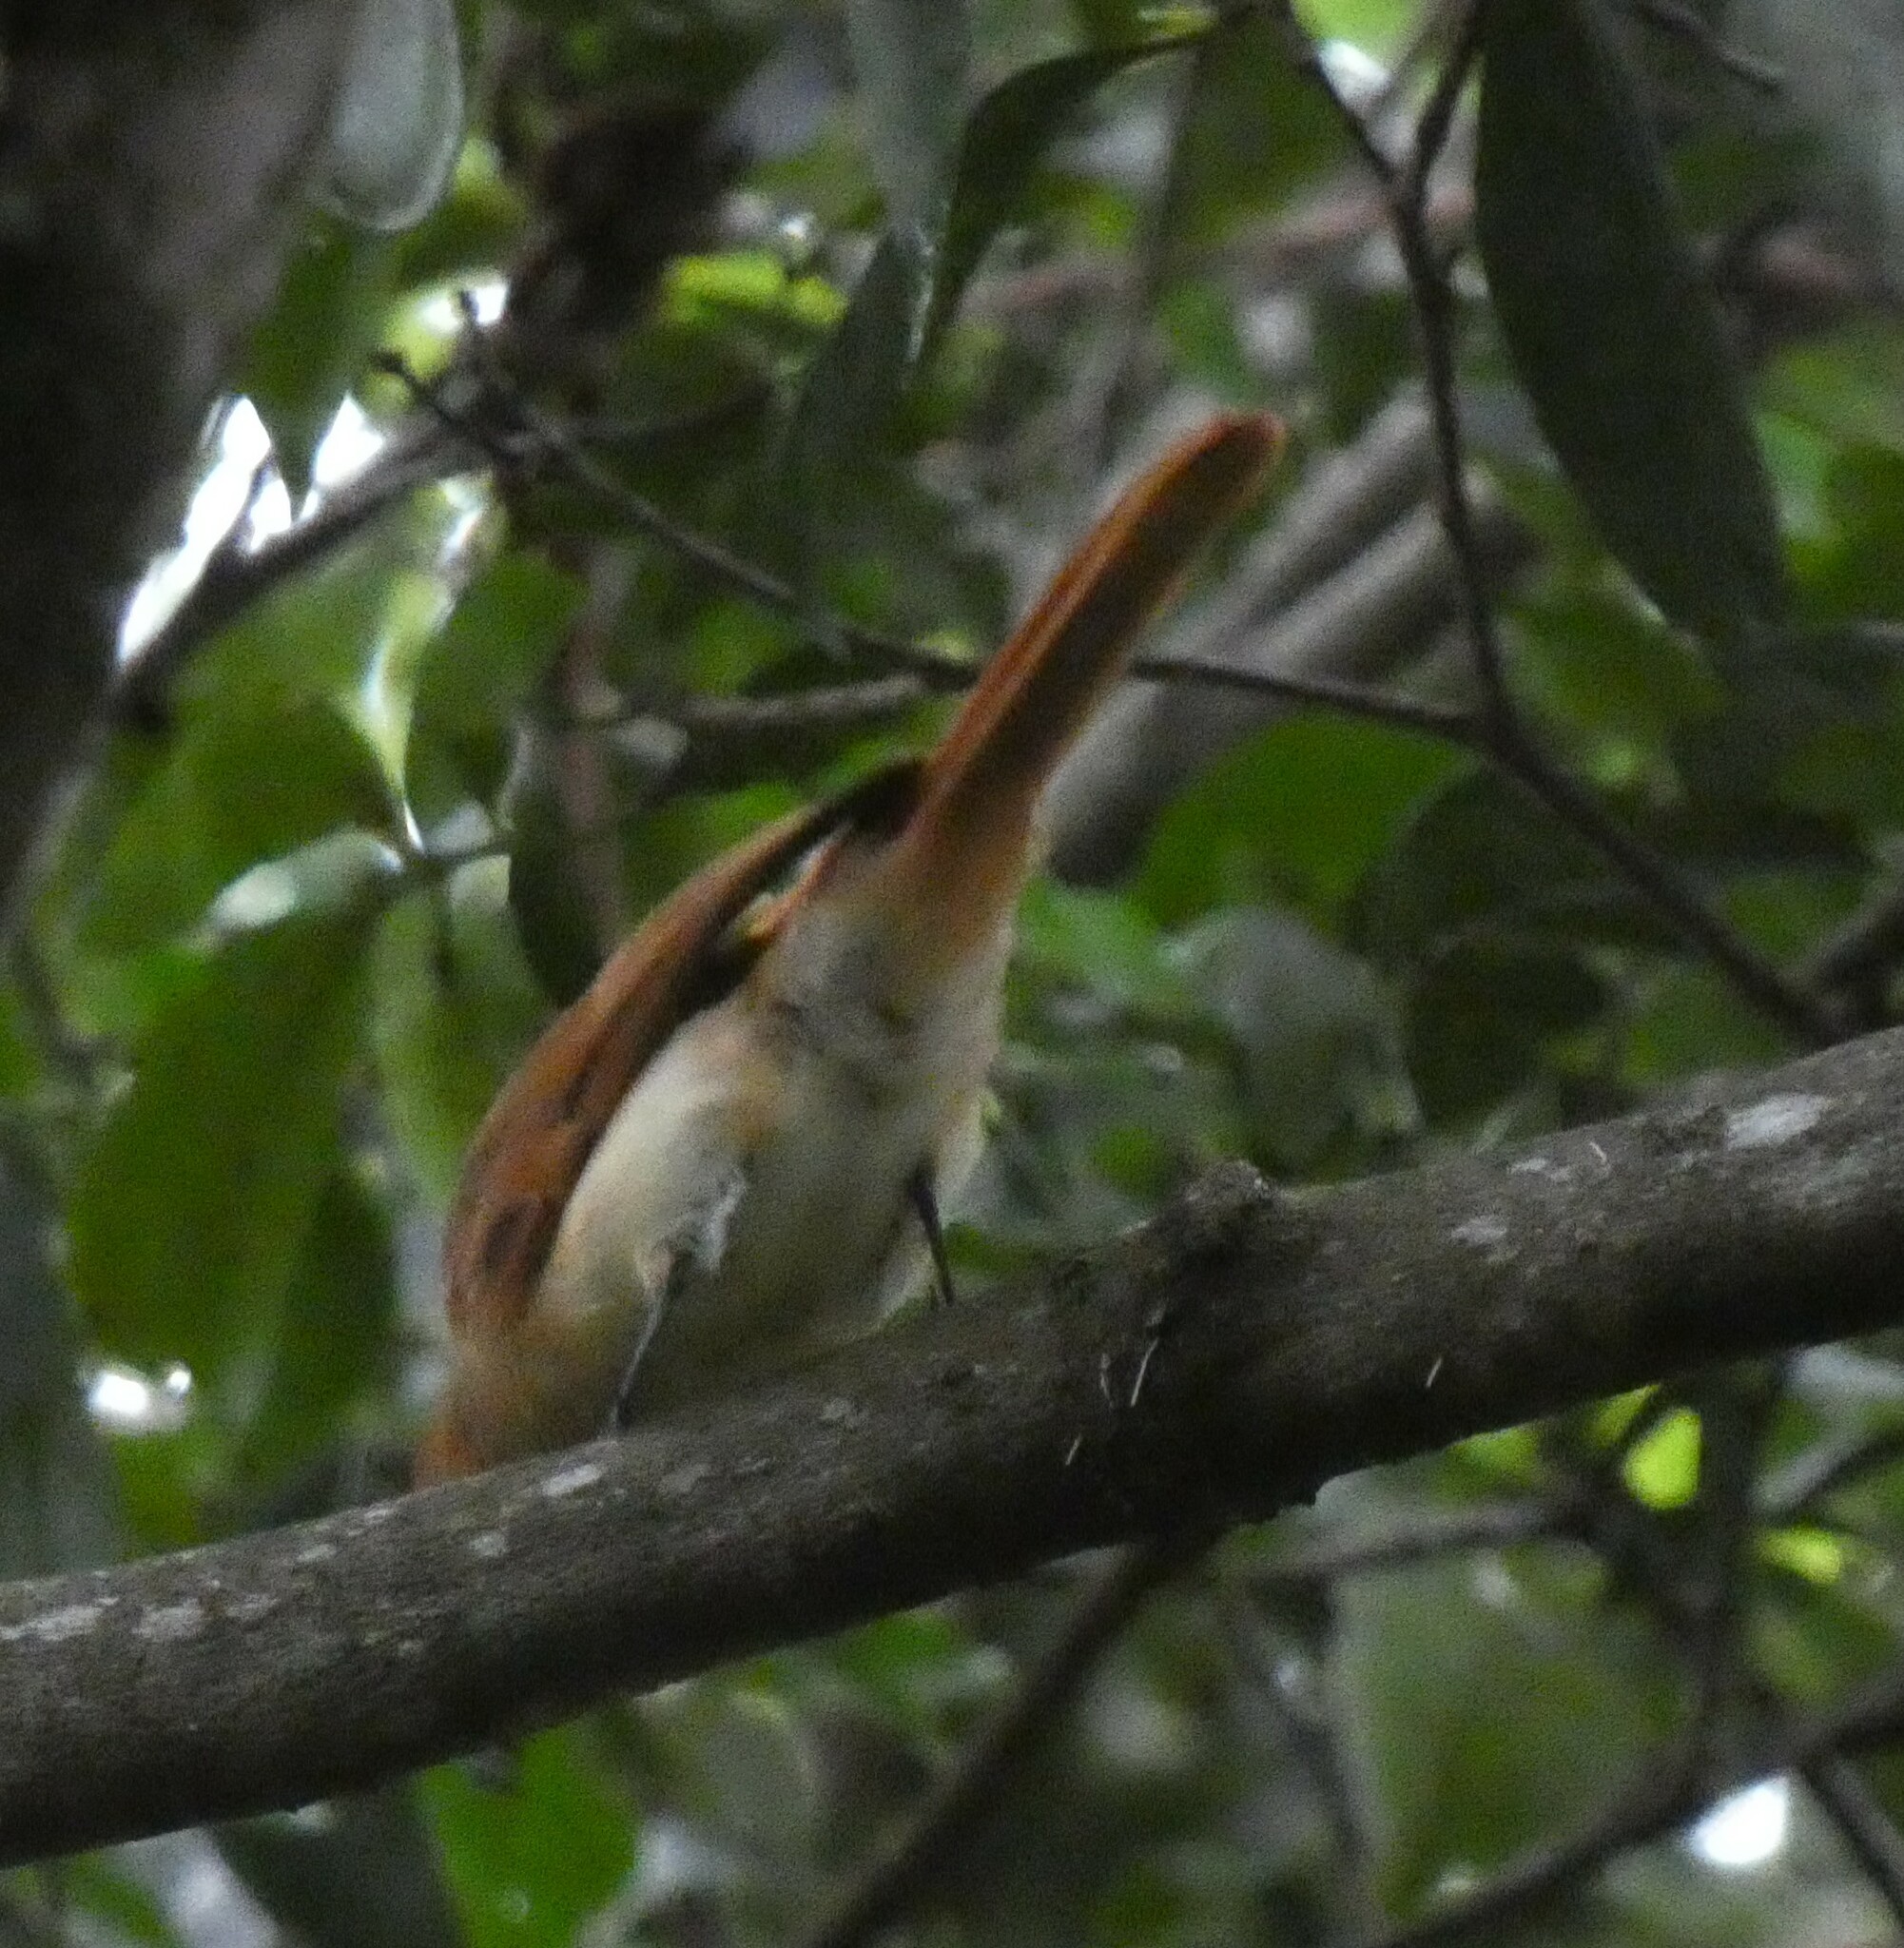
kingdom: Animalia
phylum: Chordata
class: Aves
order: Passeriformes
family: Tyrannidae
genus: Casiornis
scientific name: Casiornis rufus
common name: Rufous casiornis
